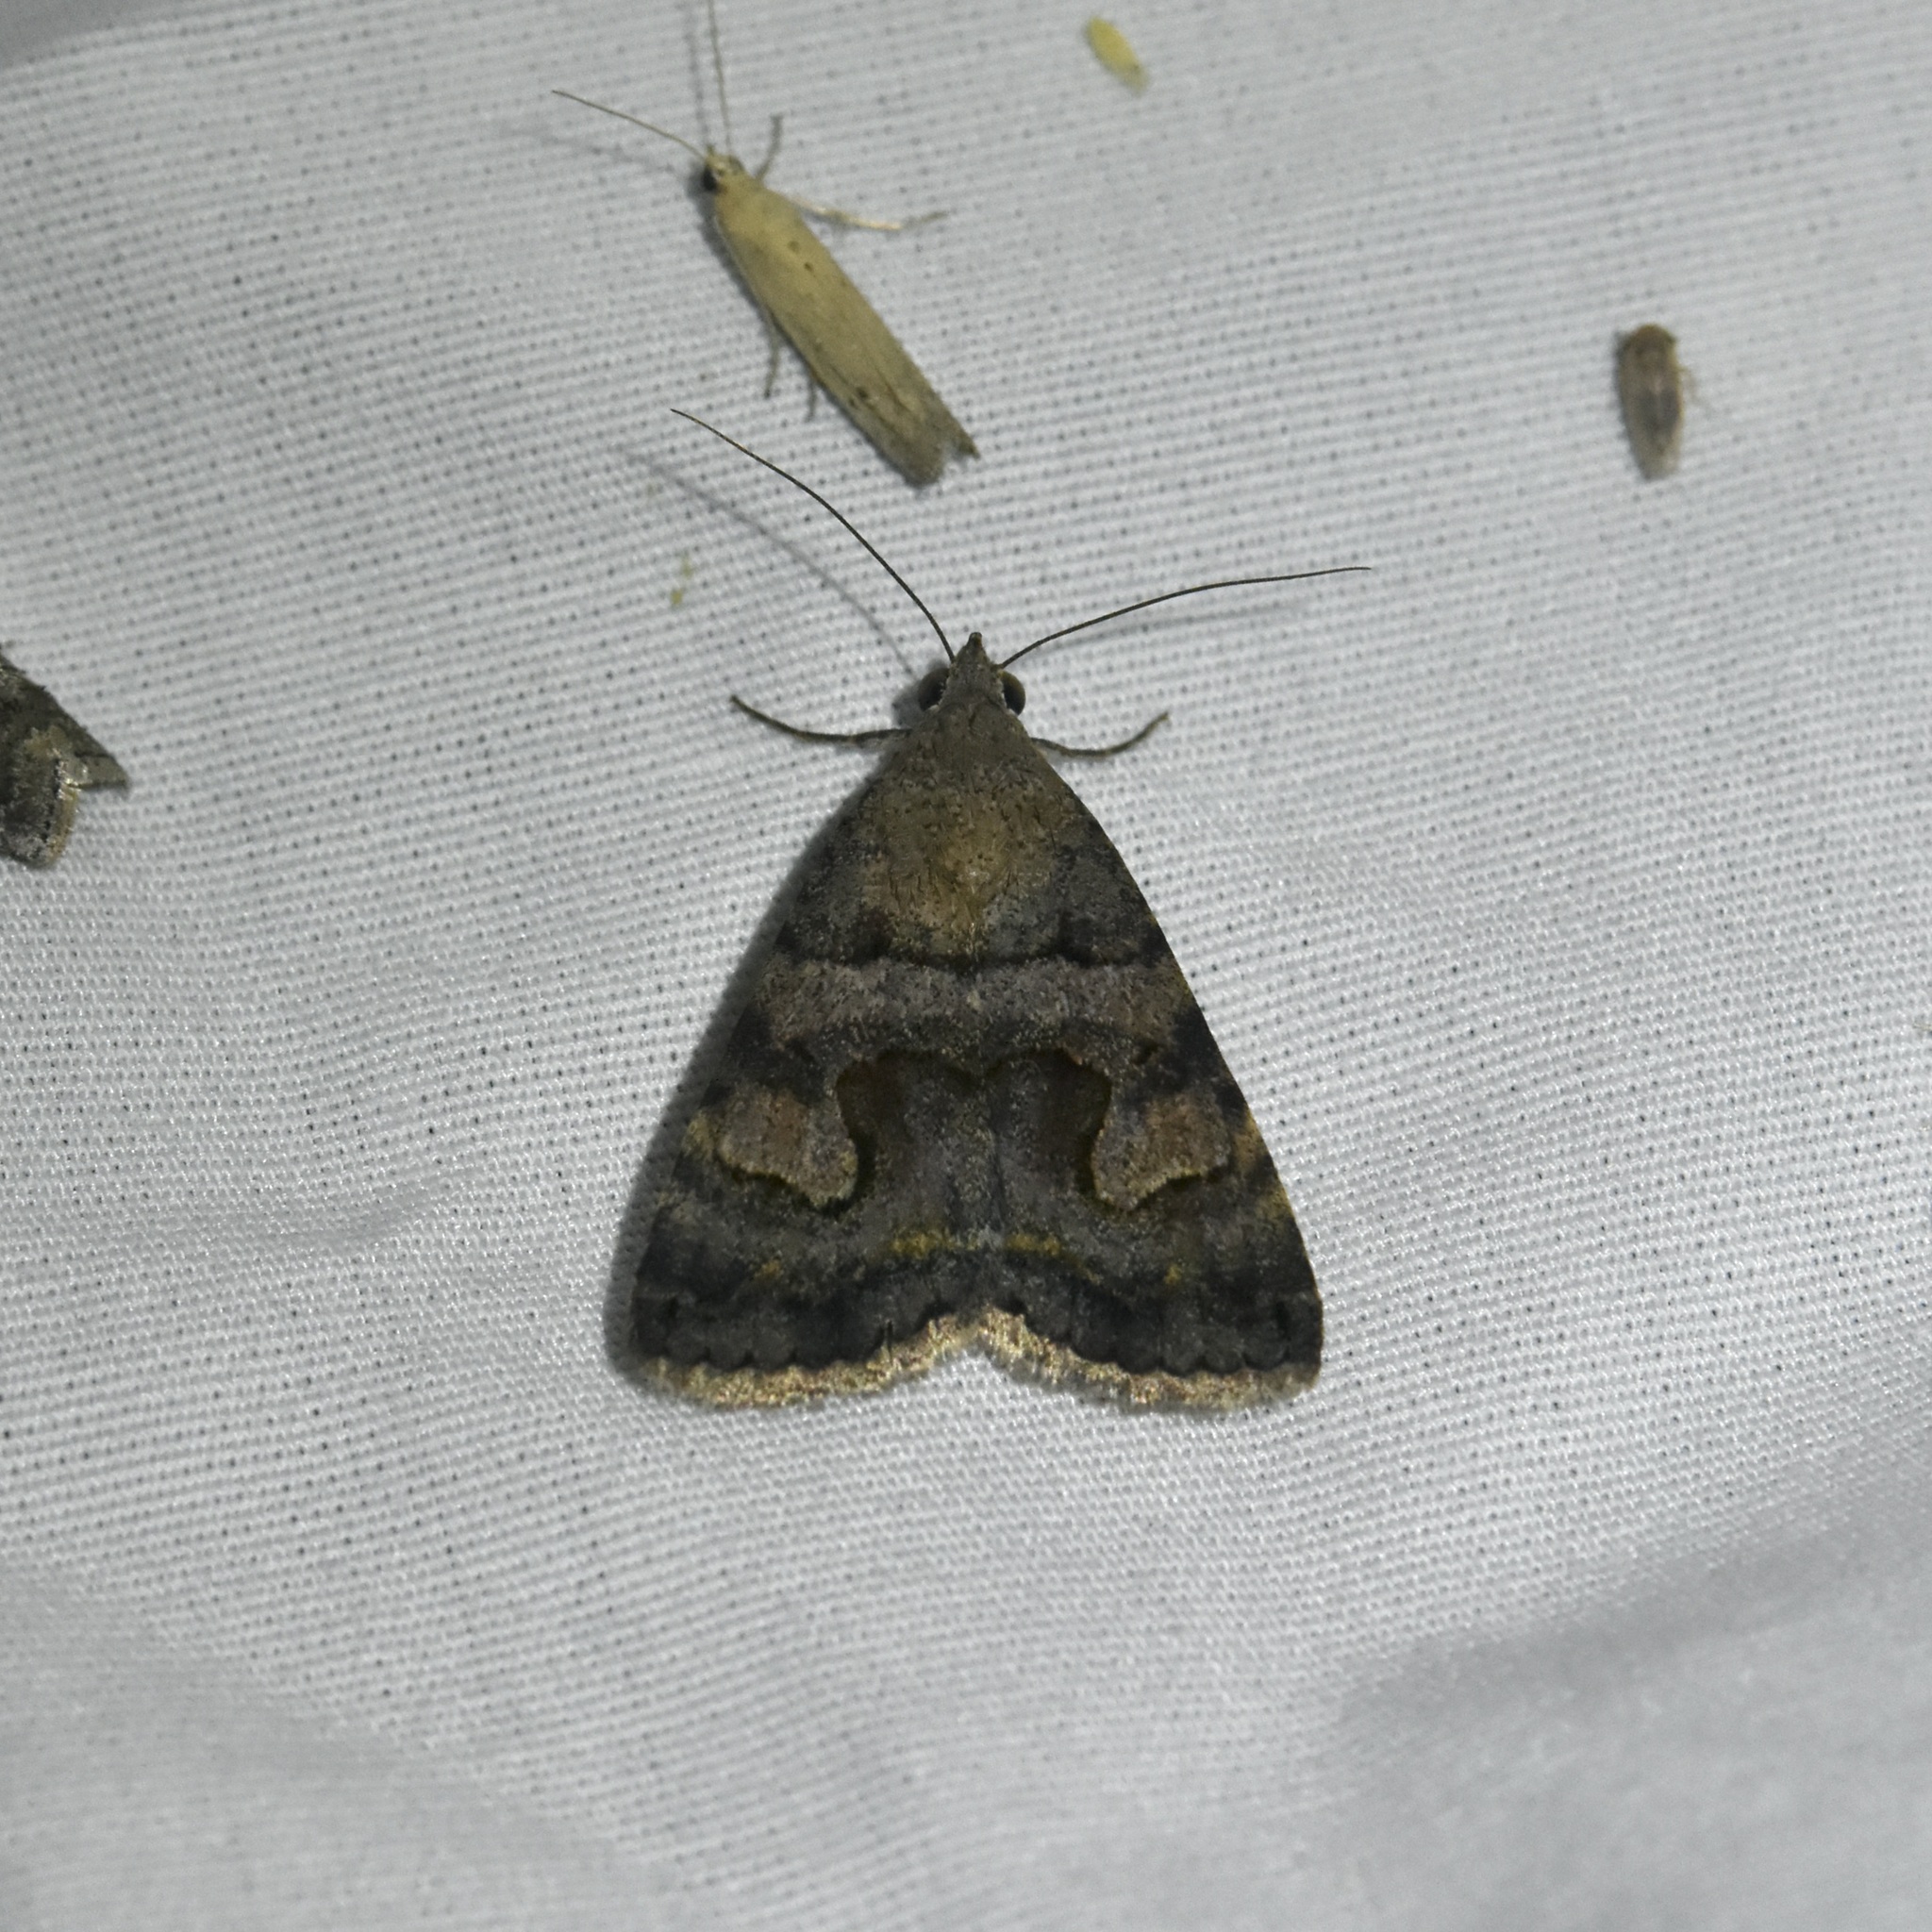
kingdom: Animalia
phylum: Arthropoda
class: Insecta
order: Lepidoptera
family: Erebidae
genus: Bulia
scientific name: Bulia deducta
